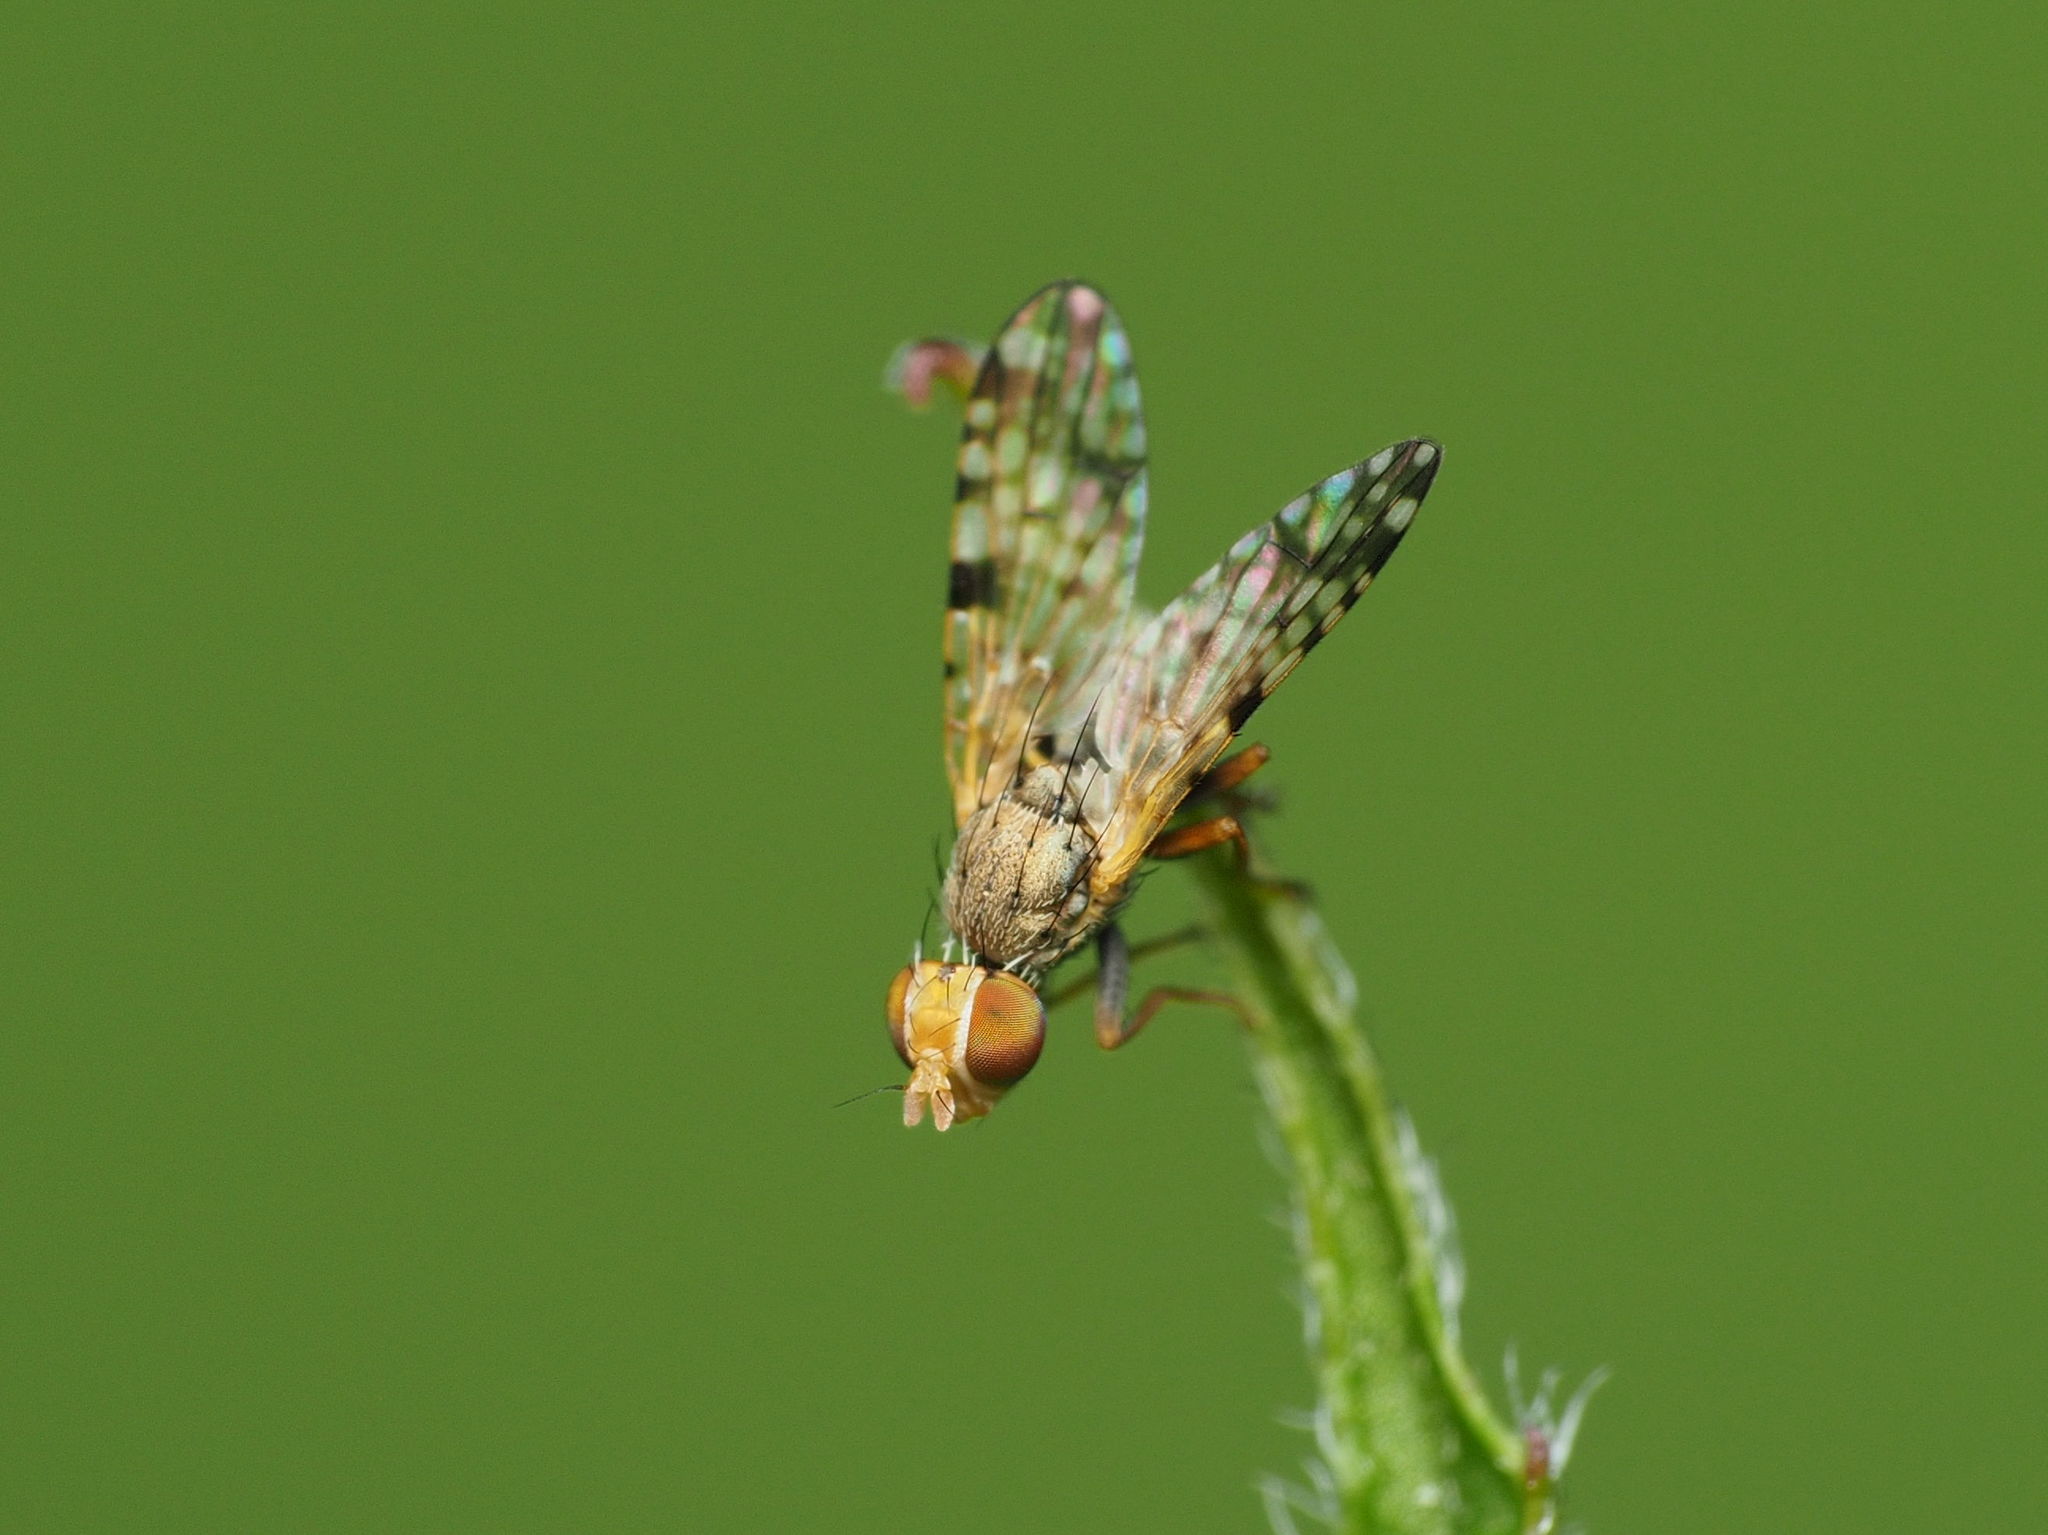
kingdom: Animalia
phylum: Arthropoda
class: Insecta
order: Diptera
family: Tephritidae
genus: Dioxyna
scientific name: Dioxyna picciola
